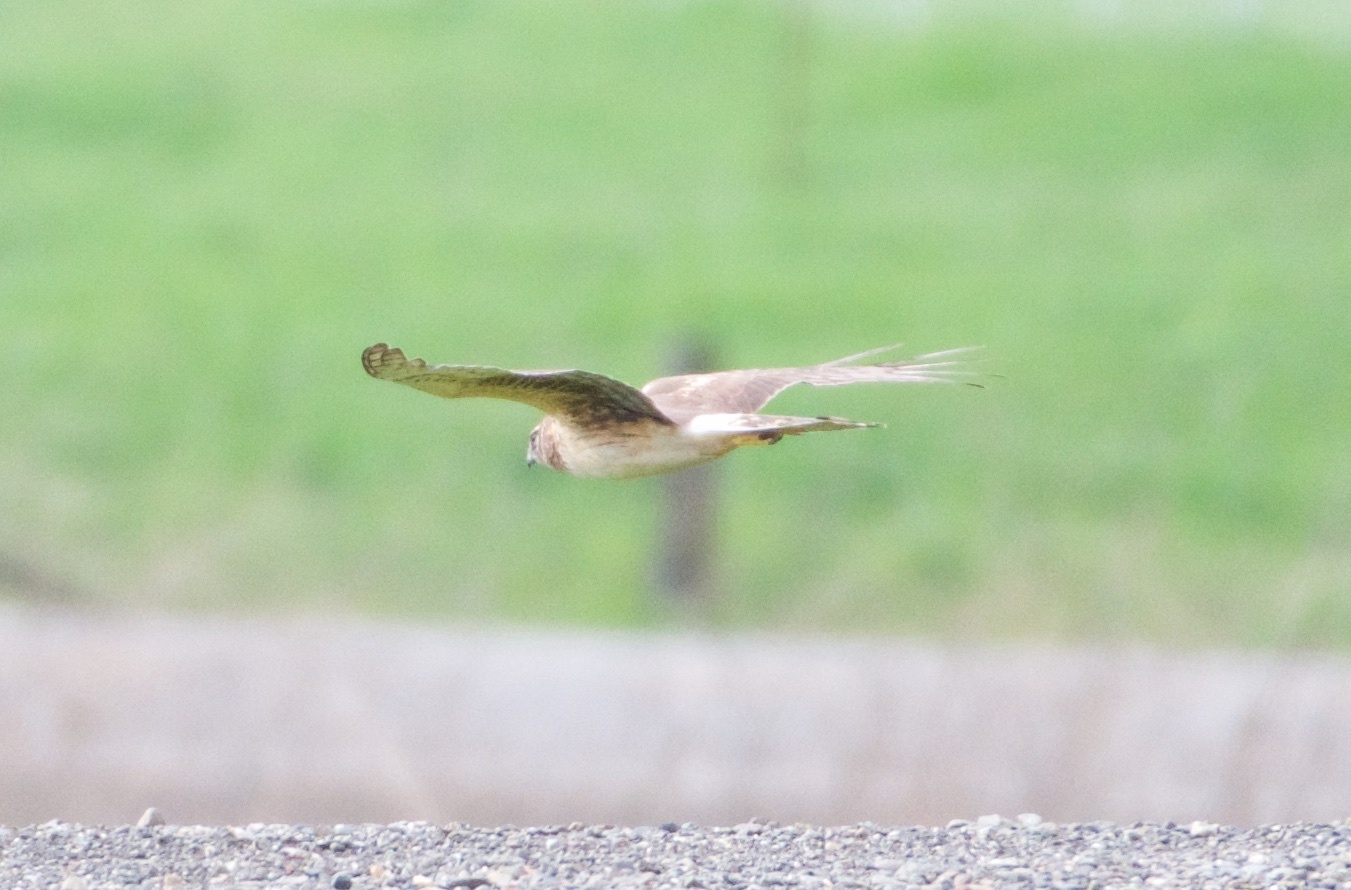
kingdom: Animalia
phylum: Chordata
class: Aves
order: Accipitriformes
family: Accipitridae
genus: Circus
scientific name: Circus cyaneus
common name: Hen harrier
